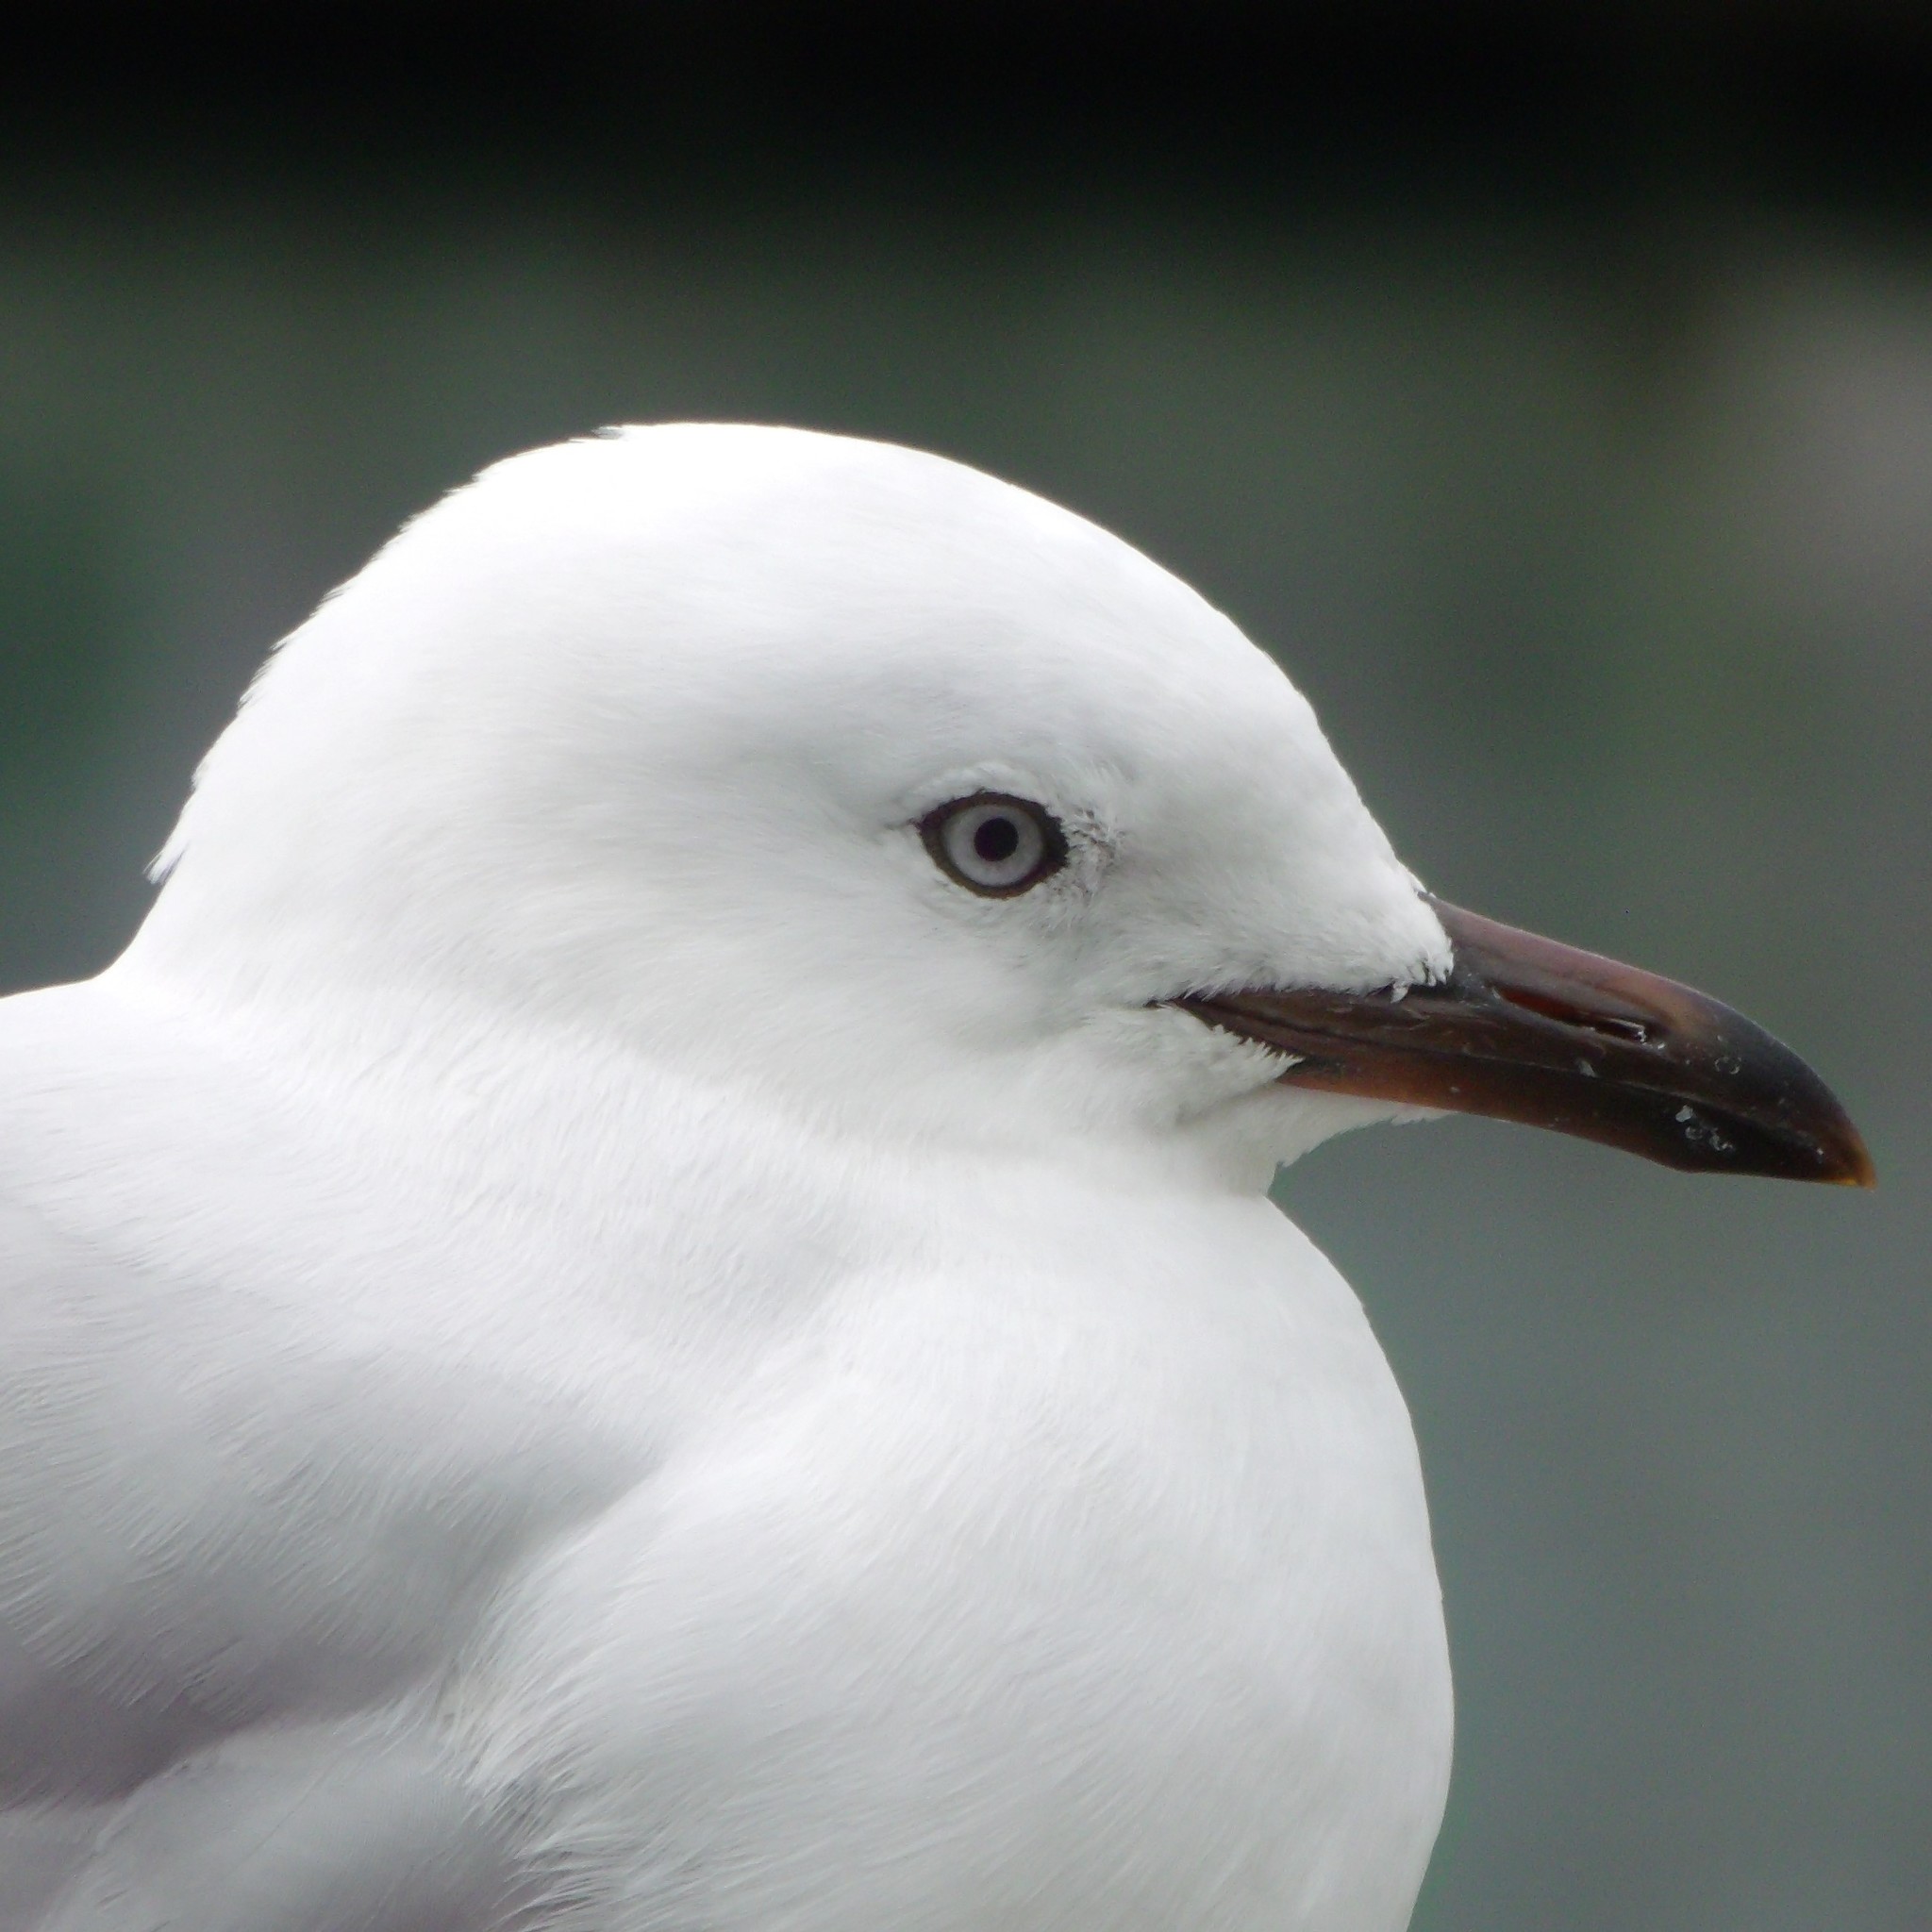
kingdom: Animalia
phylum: Chordata
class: Aves
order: Charadriiformes
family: Laridae
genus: Chroicocephalus
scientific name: Chroicocephalus novaehollandiae
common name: Silver gull
